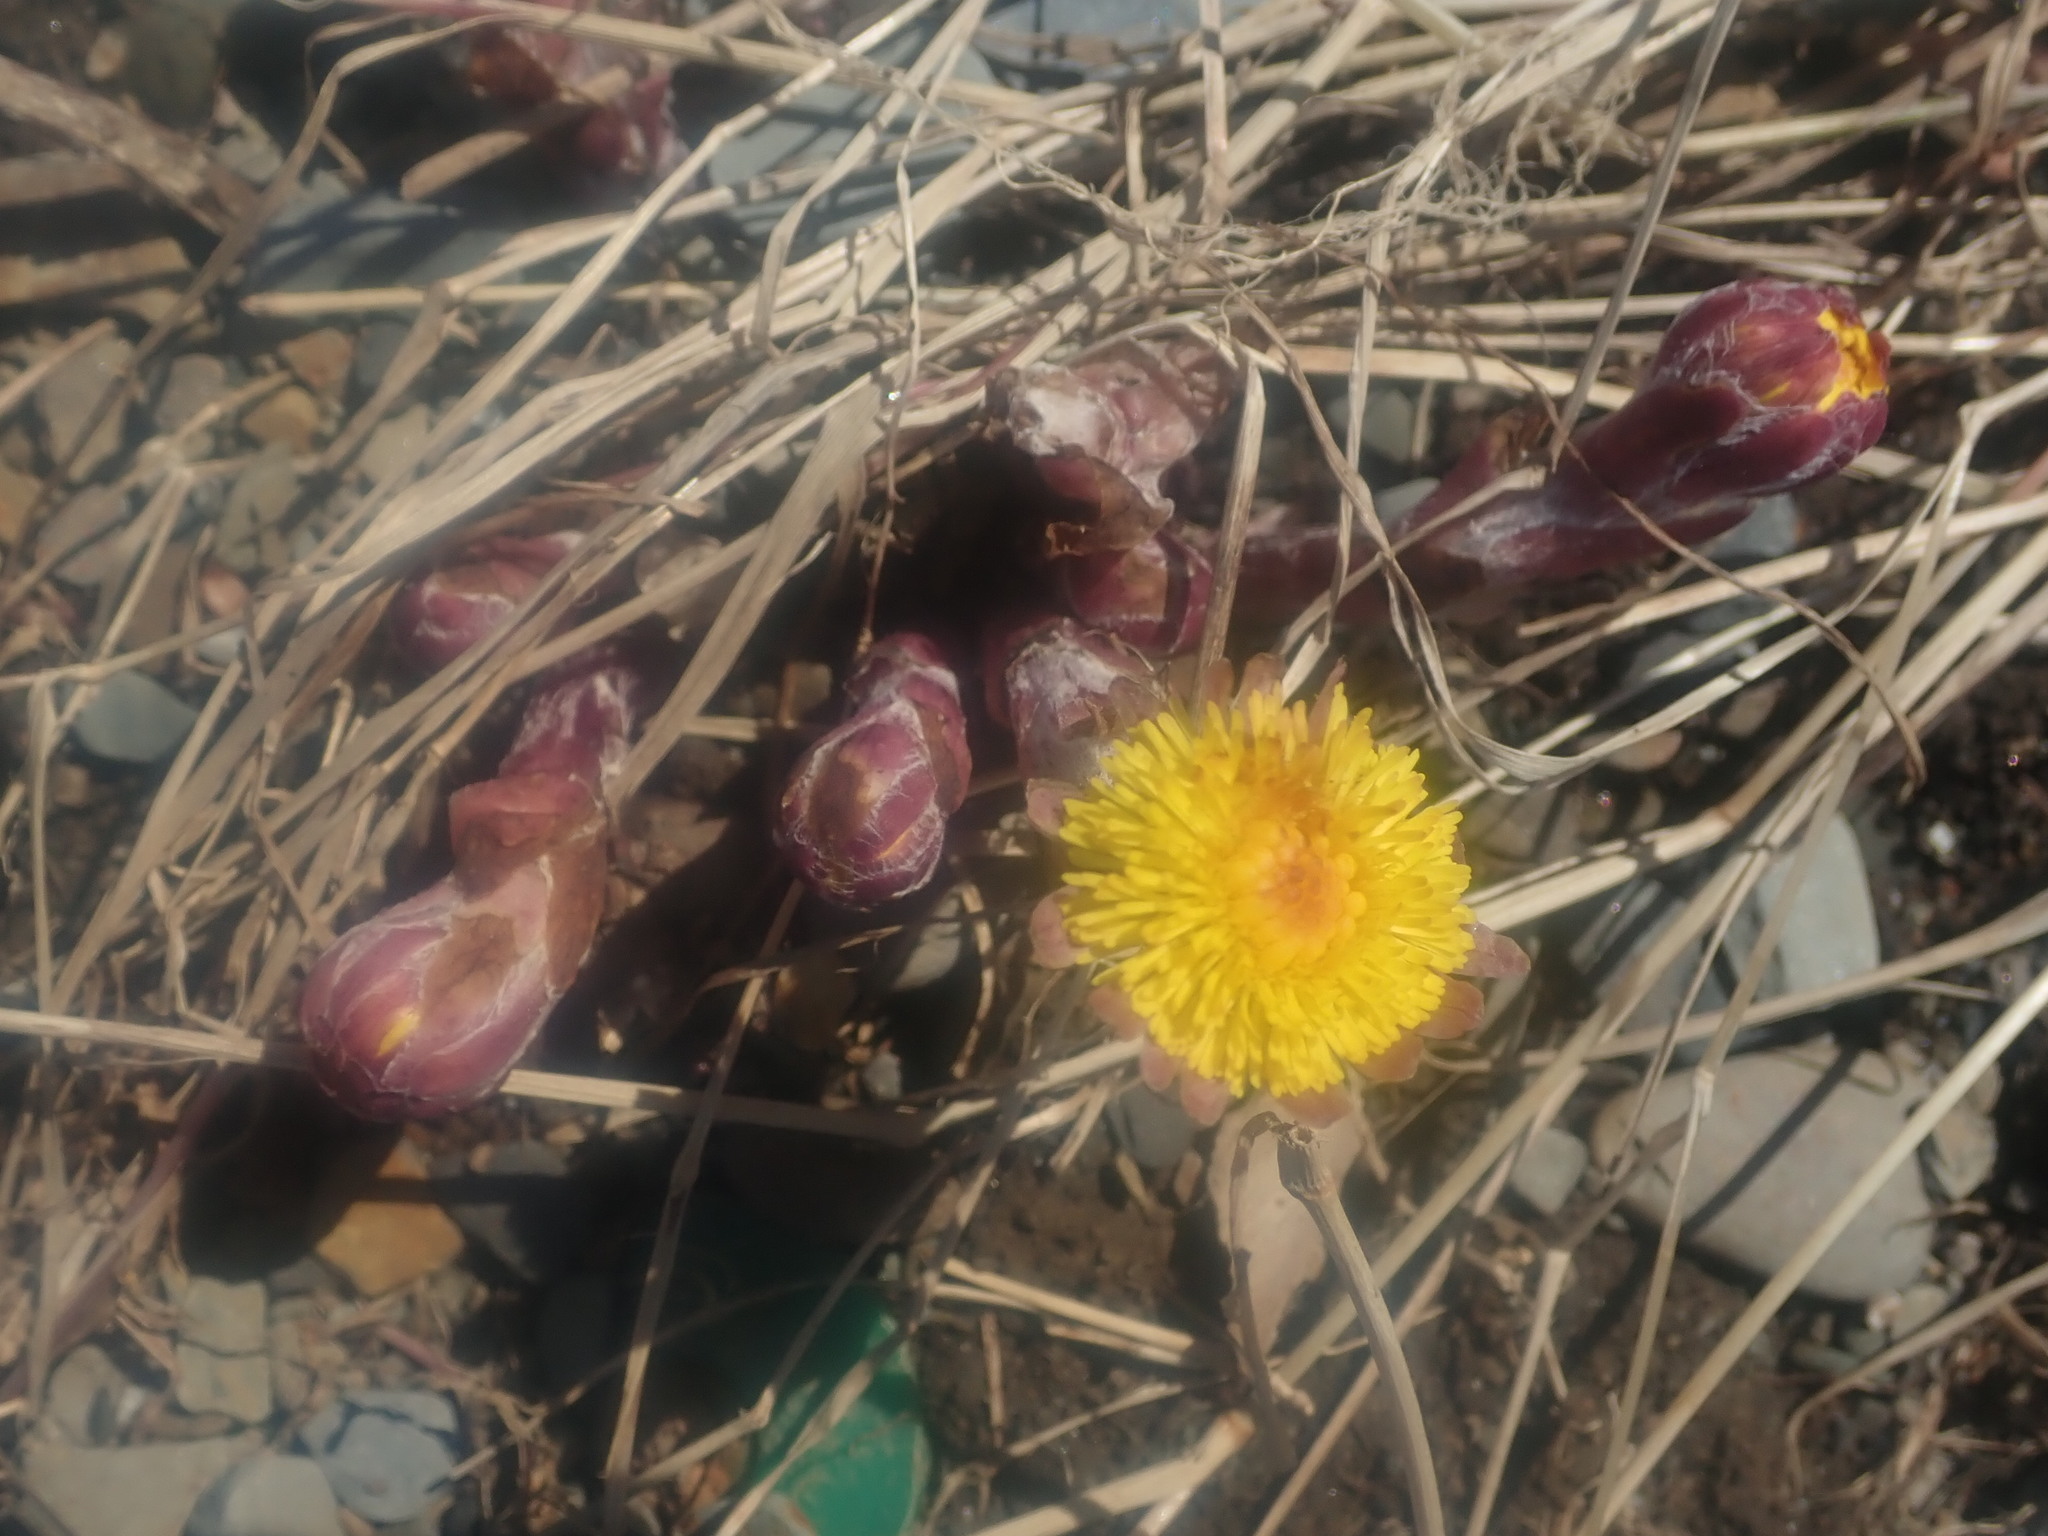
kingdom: Plantae
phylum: Tracheophyta
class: Magnoliopsida
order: Asterales
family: Asteraceae
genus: Tussilago
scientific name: Tussilago farfara
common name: Coltsfoot
